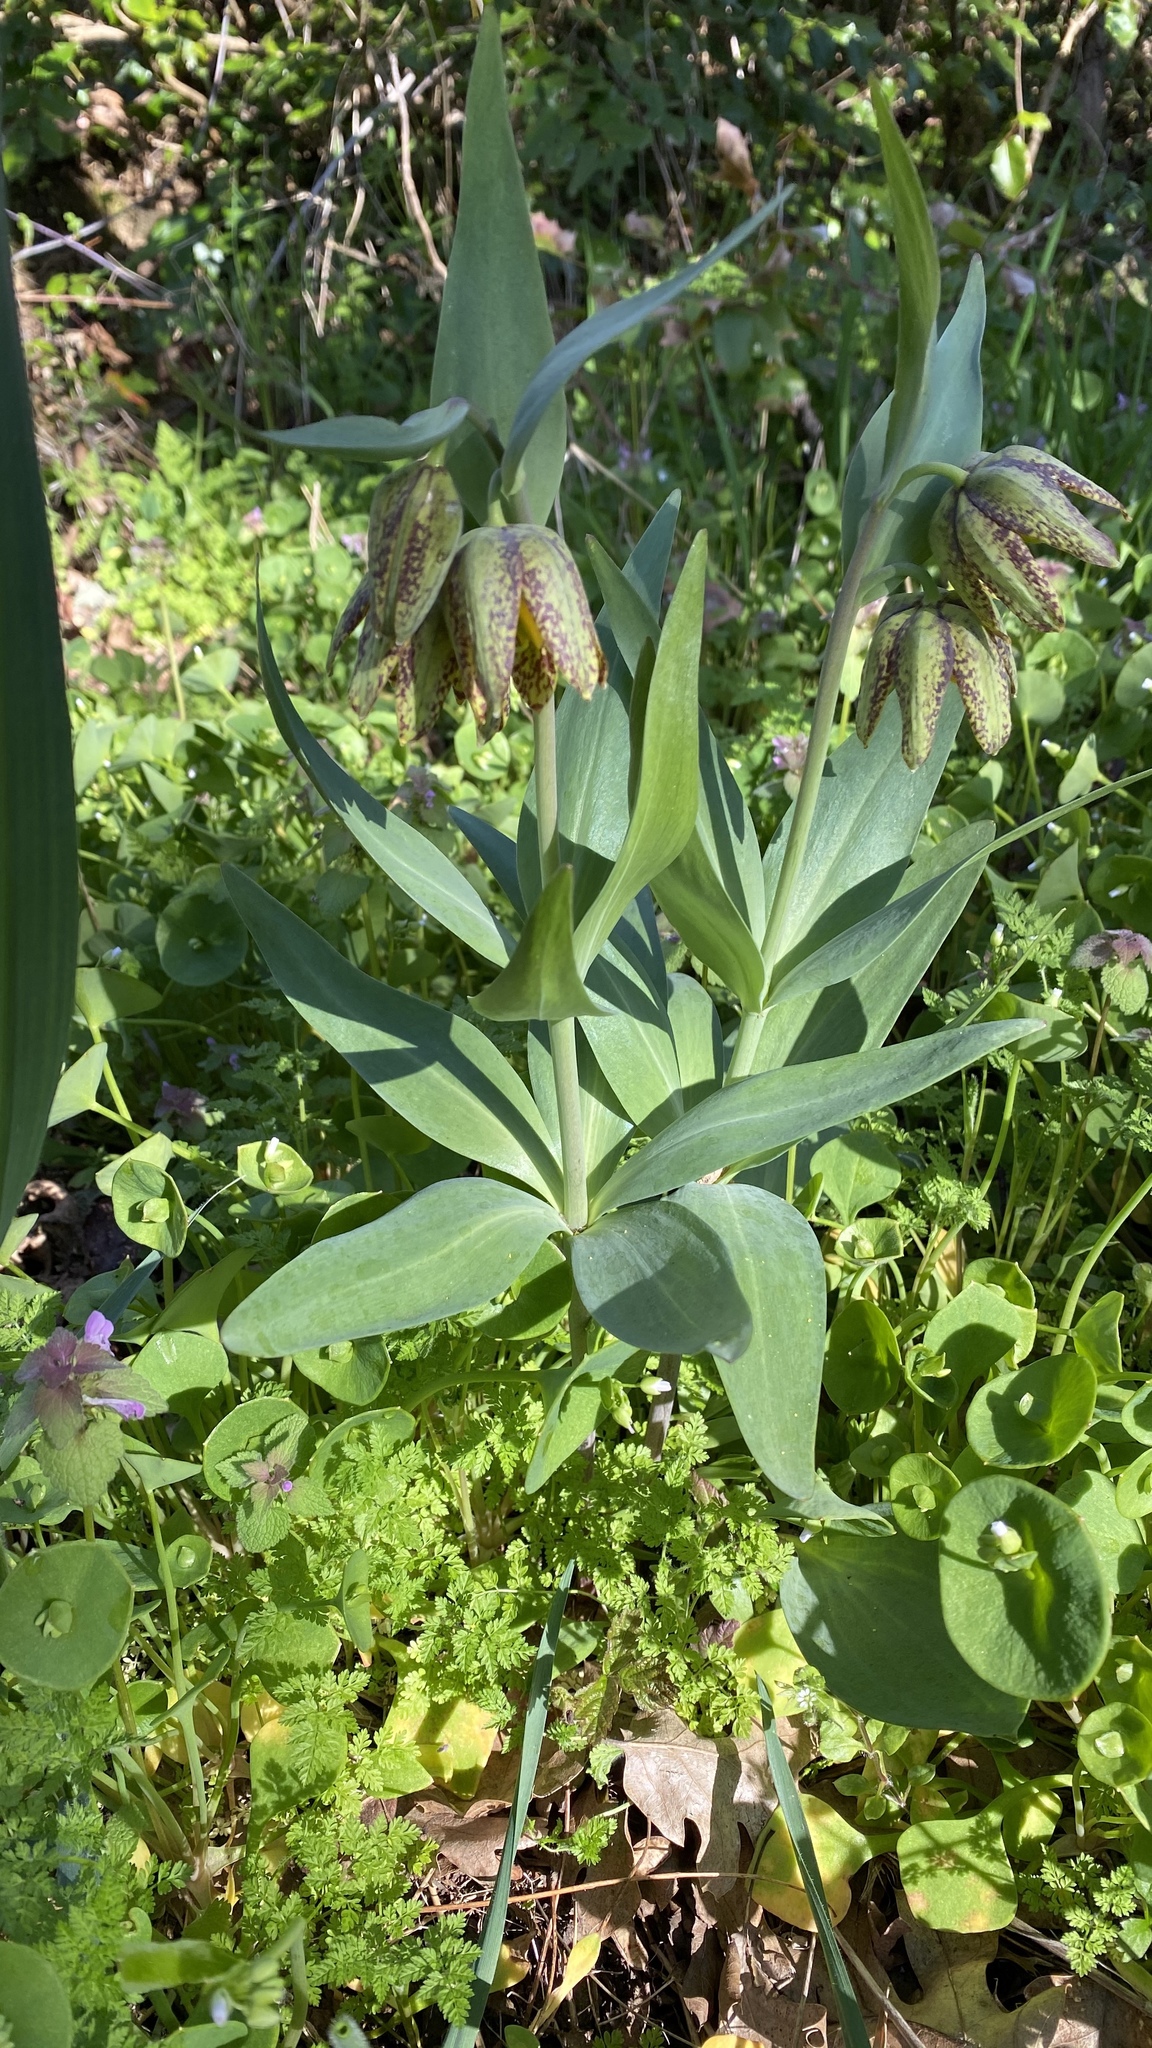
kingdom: Plantae
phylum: Tracheophyta
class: Liliopsida
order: Liliales
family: Liliaceae
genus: Fritillaria
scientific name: Fritillaria affinis
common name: Ojai fritillary
